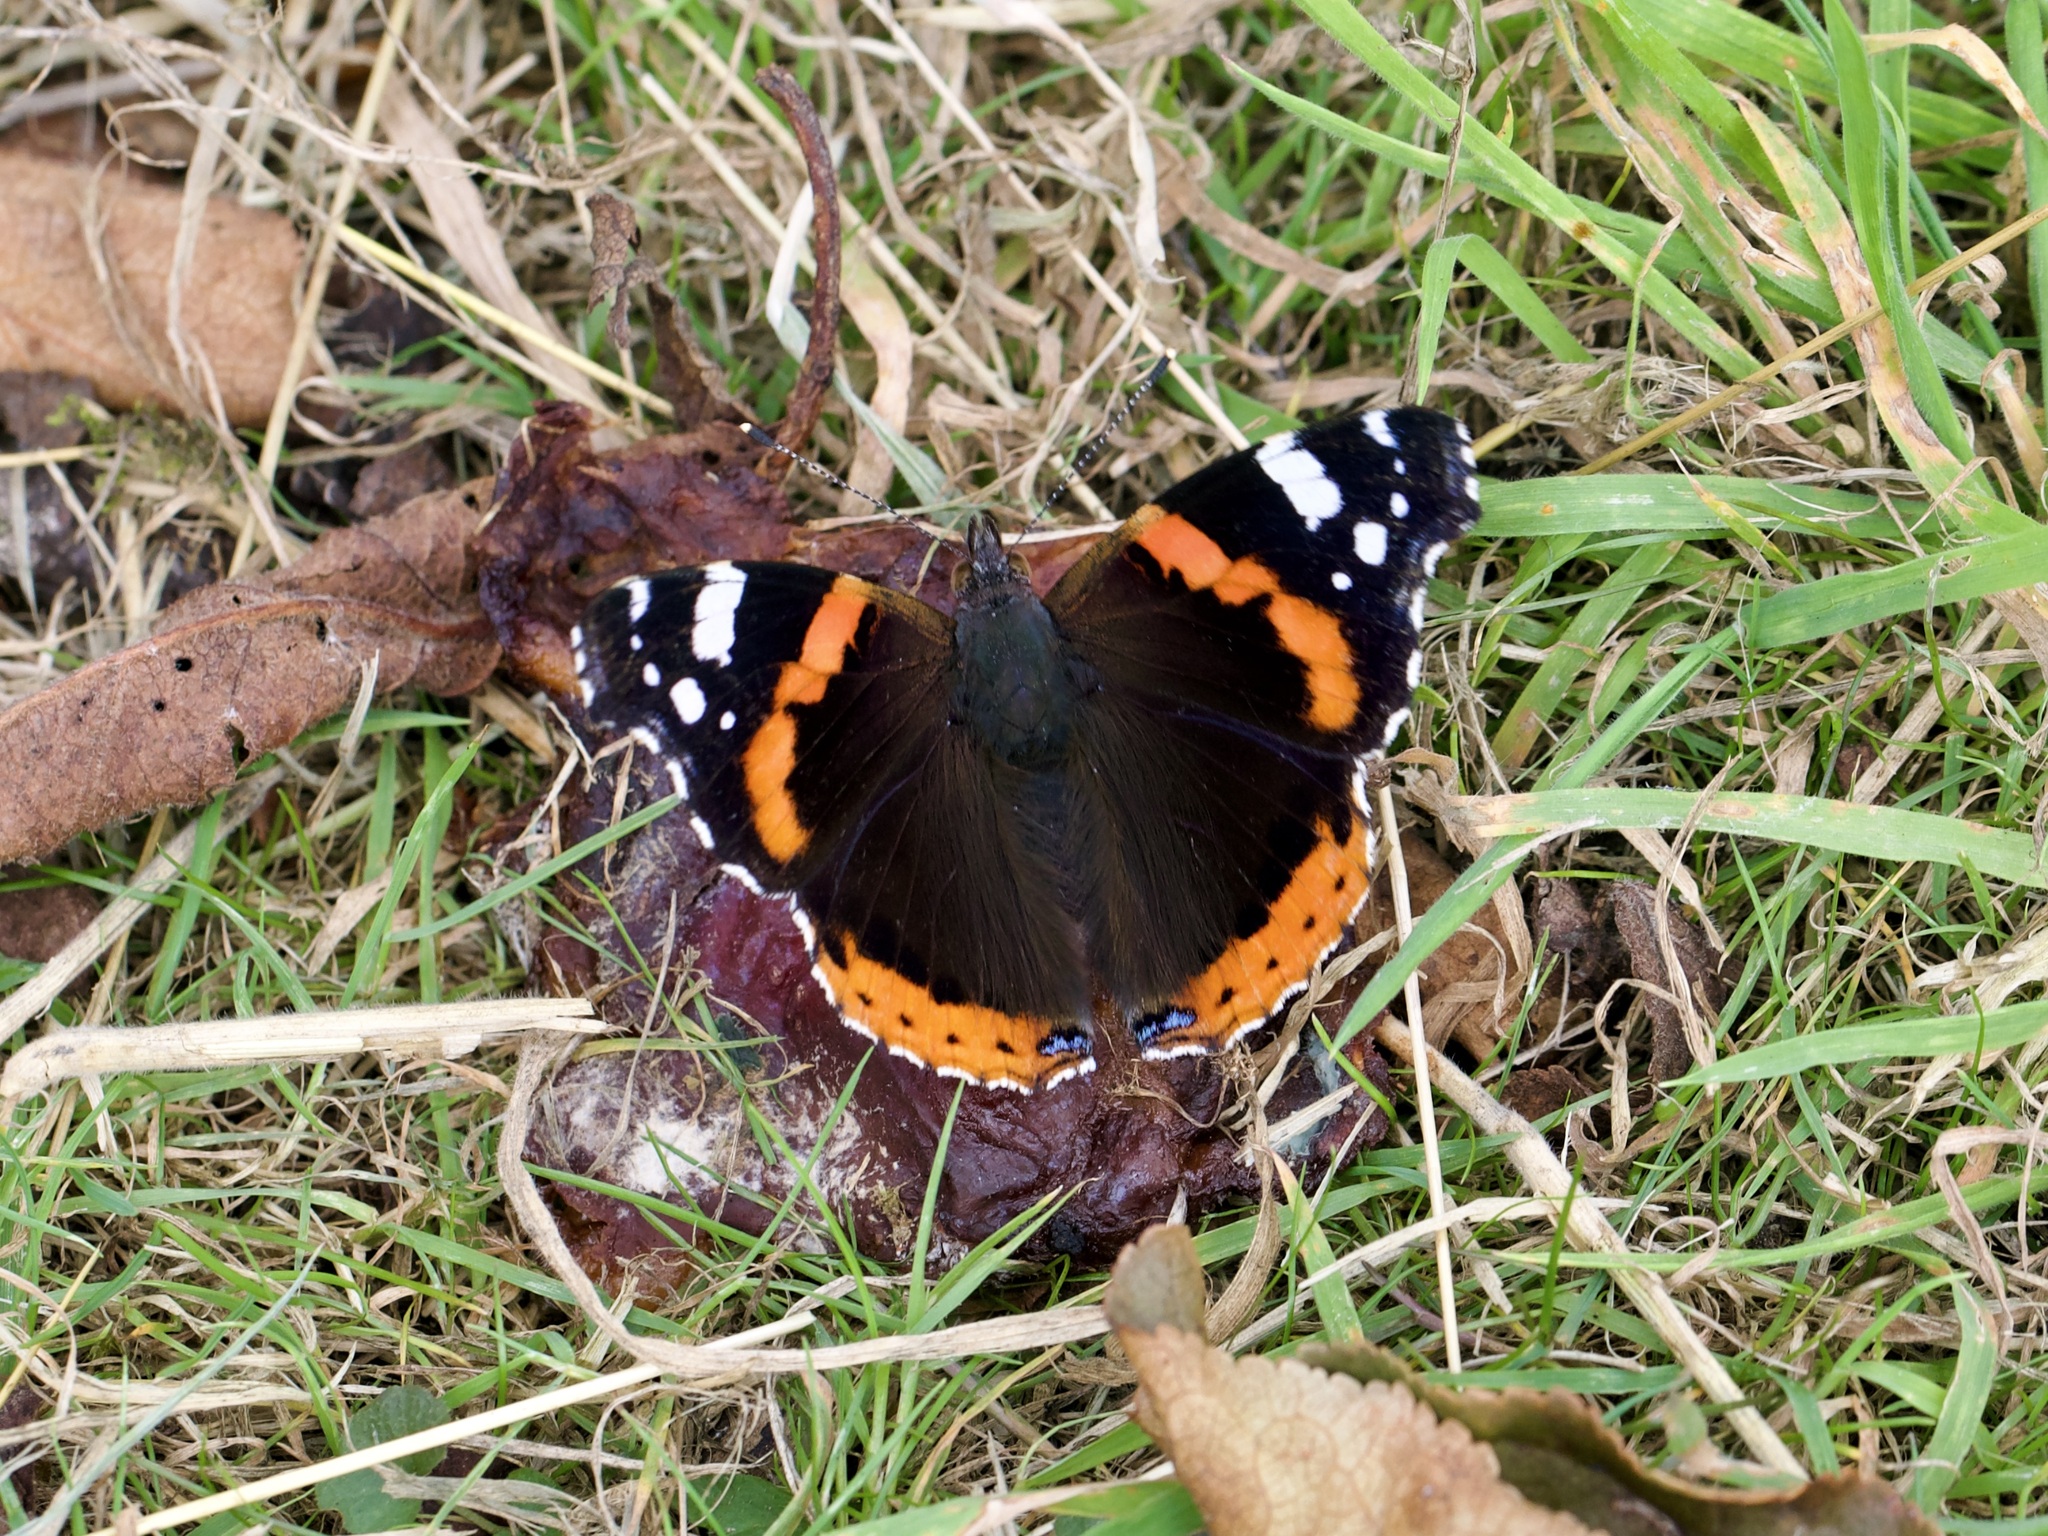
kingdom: Animalia
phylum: Arthropoda
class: Insecta
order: Lepidoptera
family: Nymphalidae
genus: Vanessa
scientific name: Vanessa atalanta
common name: Red admiral
